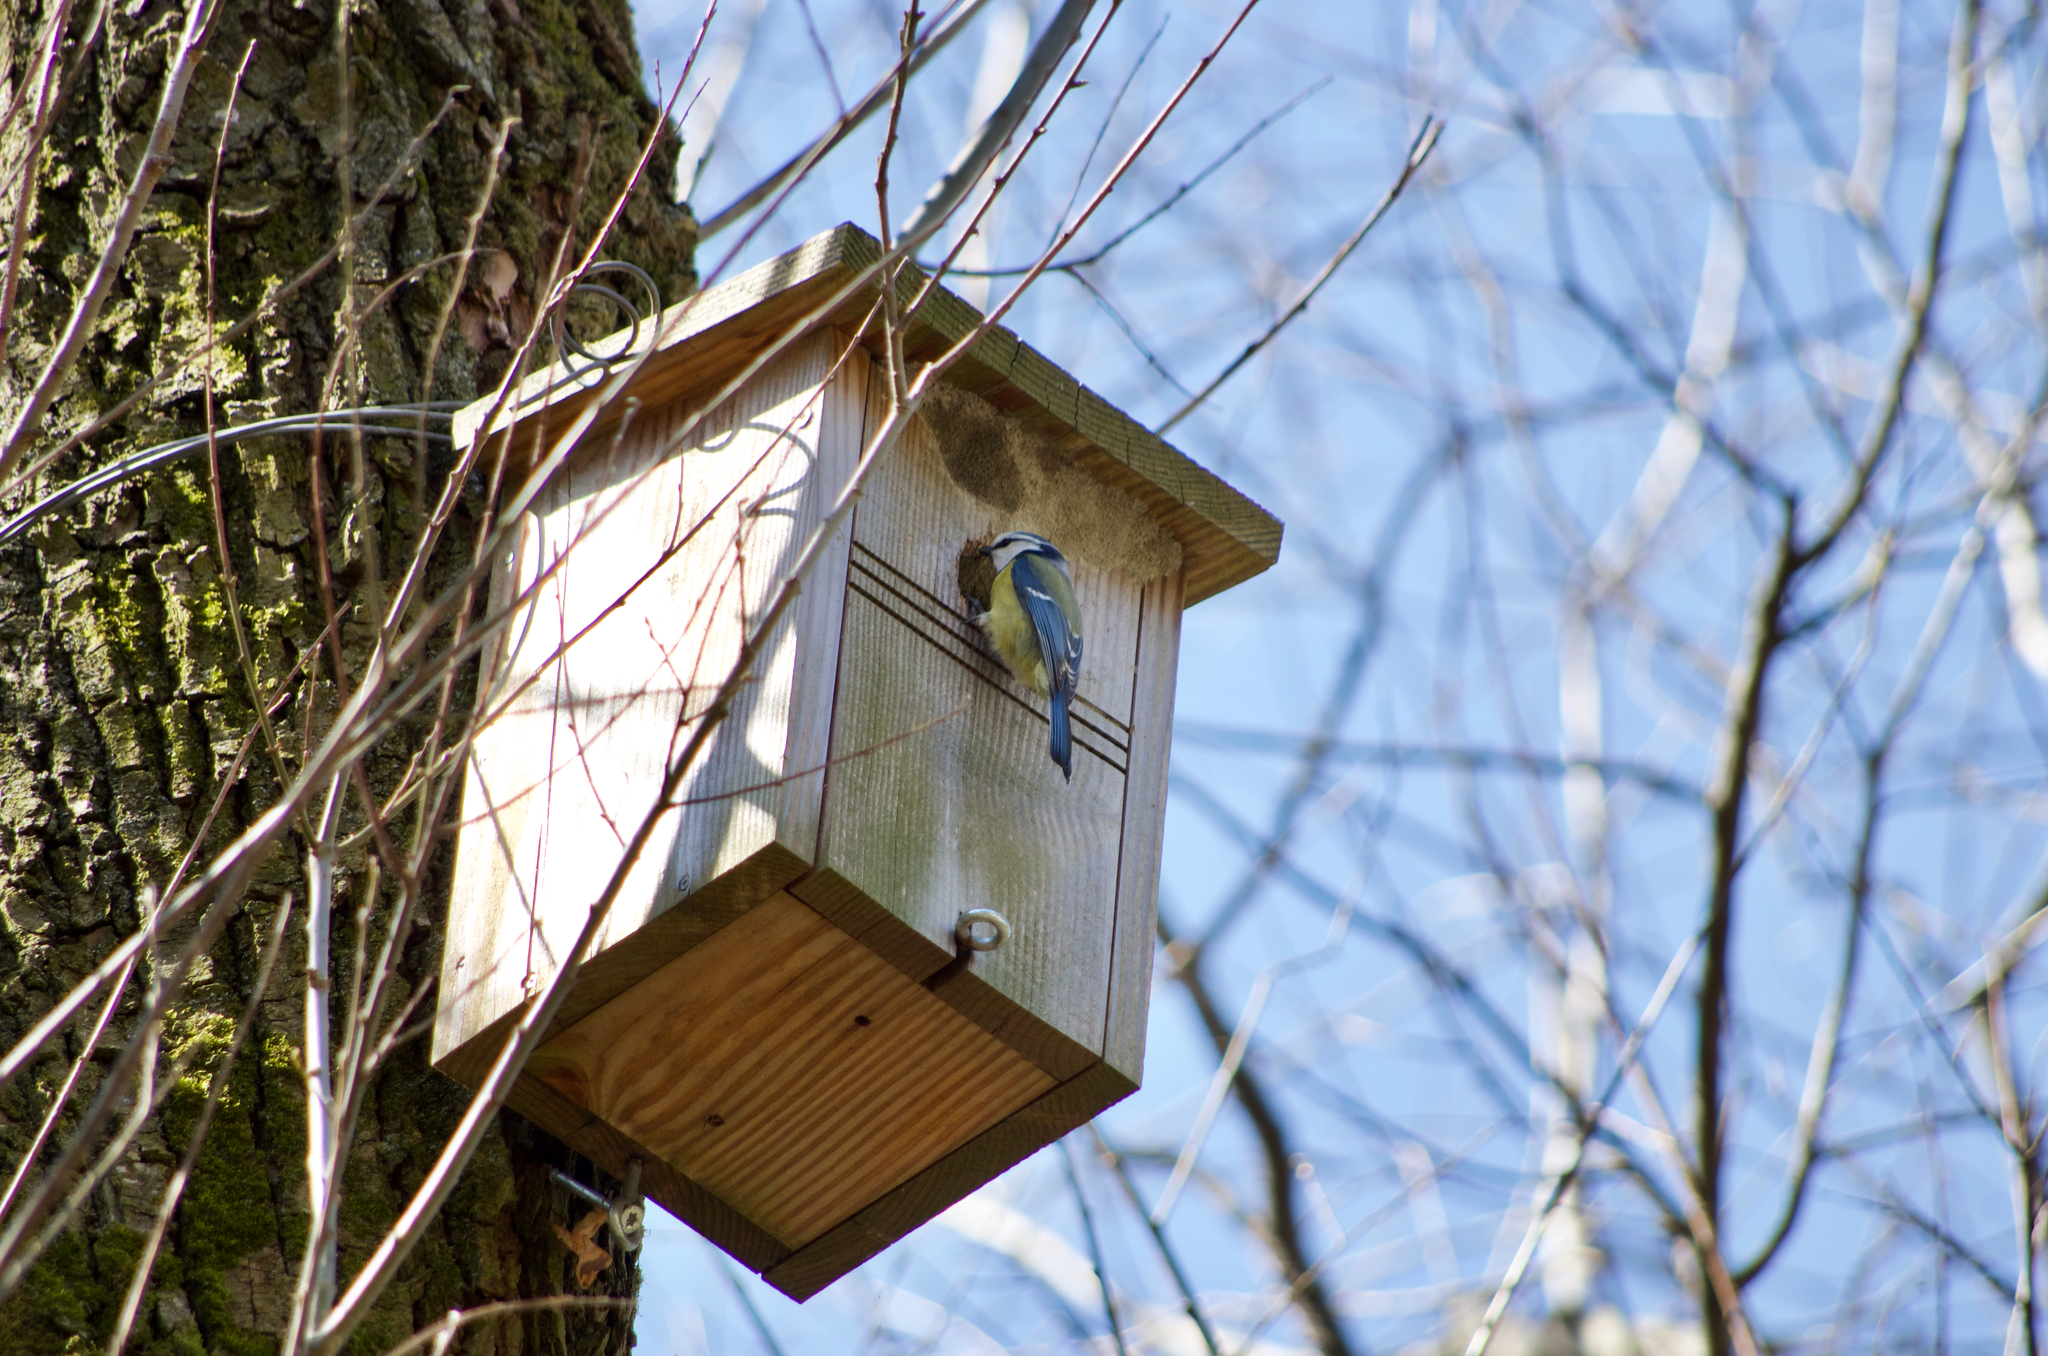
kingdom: Animalia
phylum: Chordata
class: Aves
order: Passeriformes
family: Paridae
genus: Cyanistes
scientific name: Cyanistes caeruleus
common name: Eurasian blue tit
